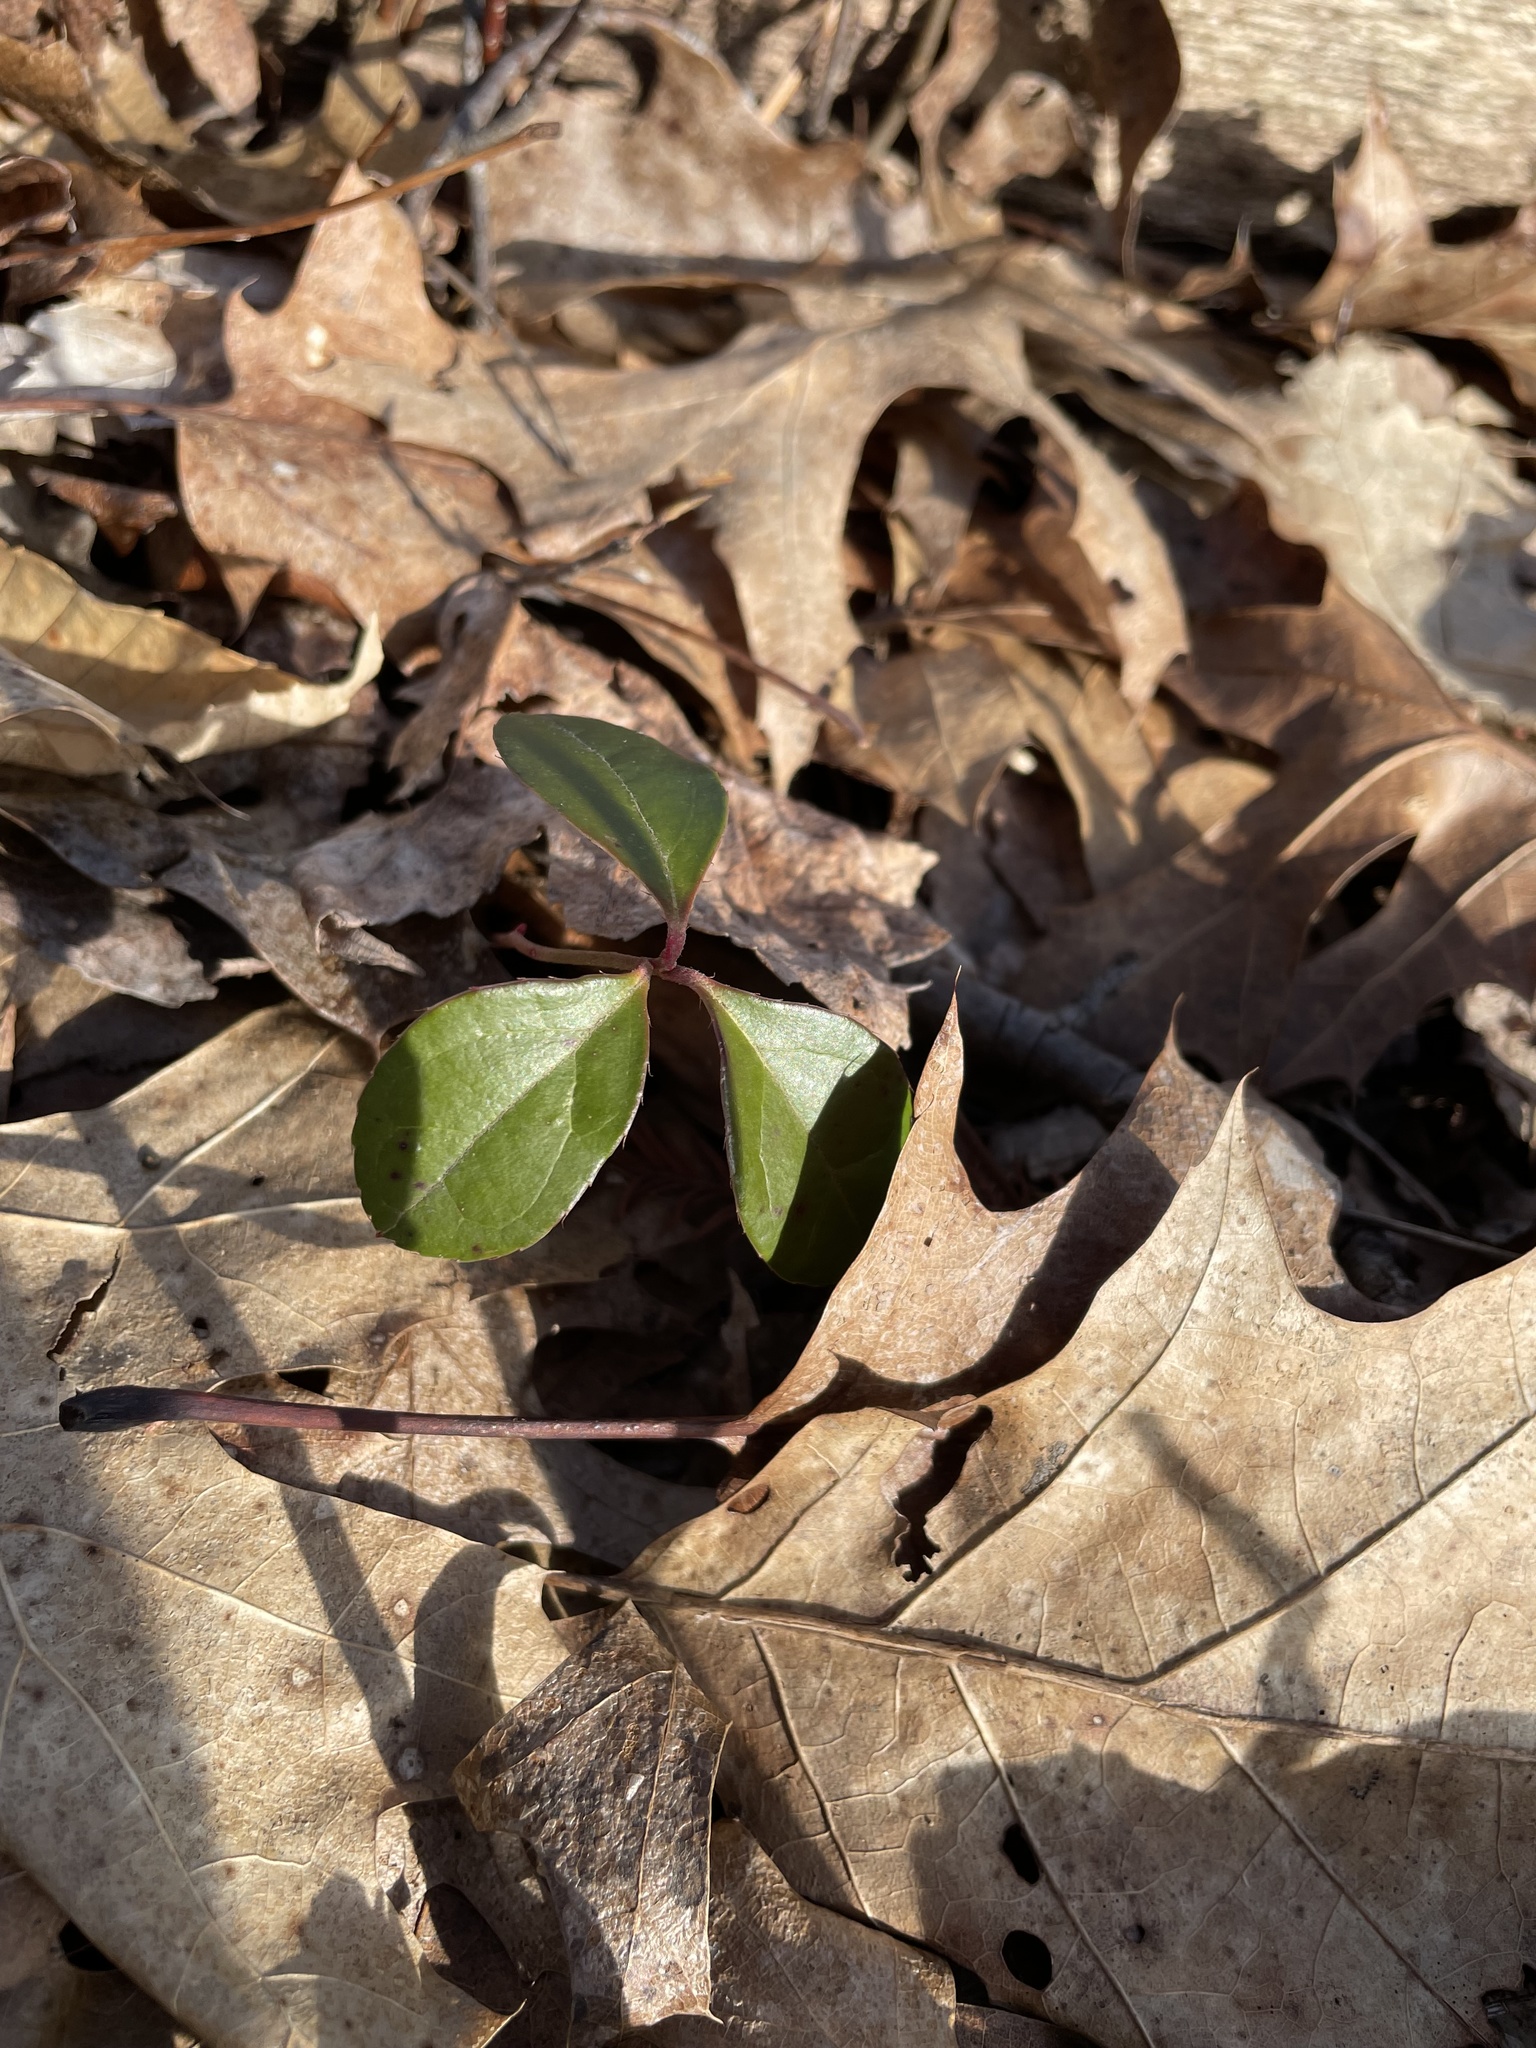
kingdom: Plantae
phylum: Tracheophyta
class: Magnoliopsida
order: Ericales
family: Ericaceae
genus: Gaultheria
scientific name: Gaultheria procumbens
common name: Checkerberry
